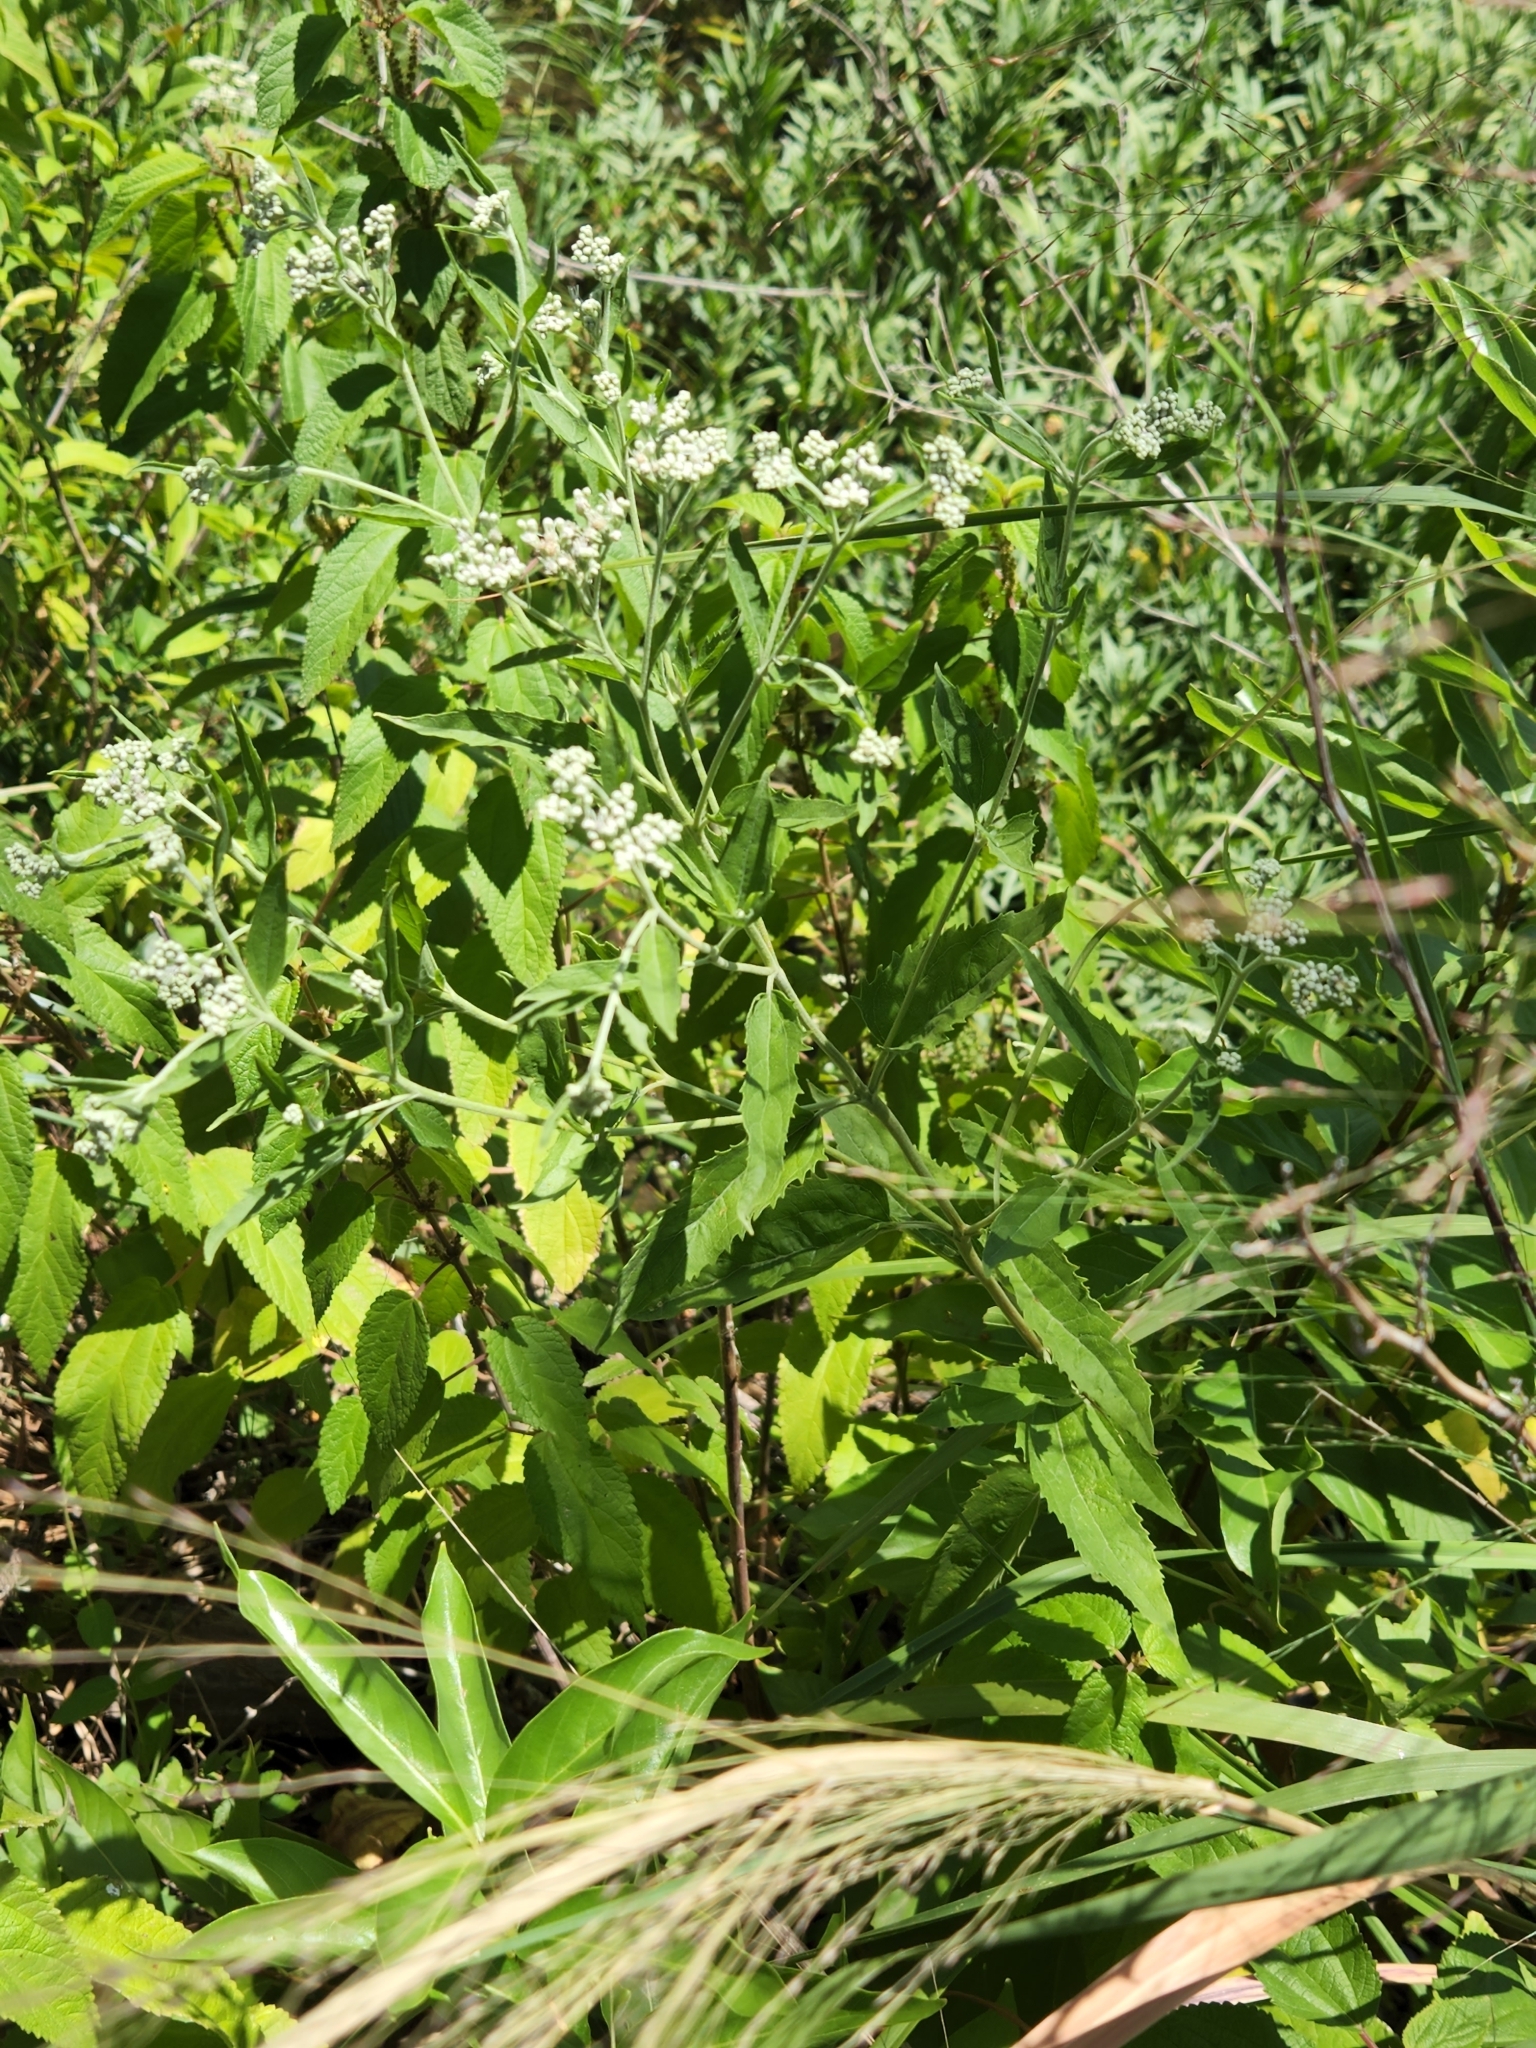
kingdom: Plantae
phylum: Tracheophyta
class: Magnoliopsida
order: Asterales
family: Asteraceae
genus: Eupatorium
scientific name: Eupatorium serotinum
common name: Late boneset
